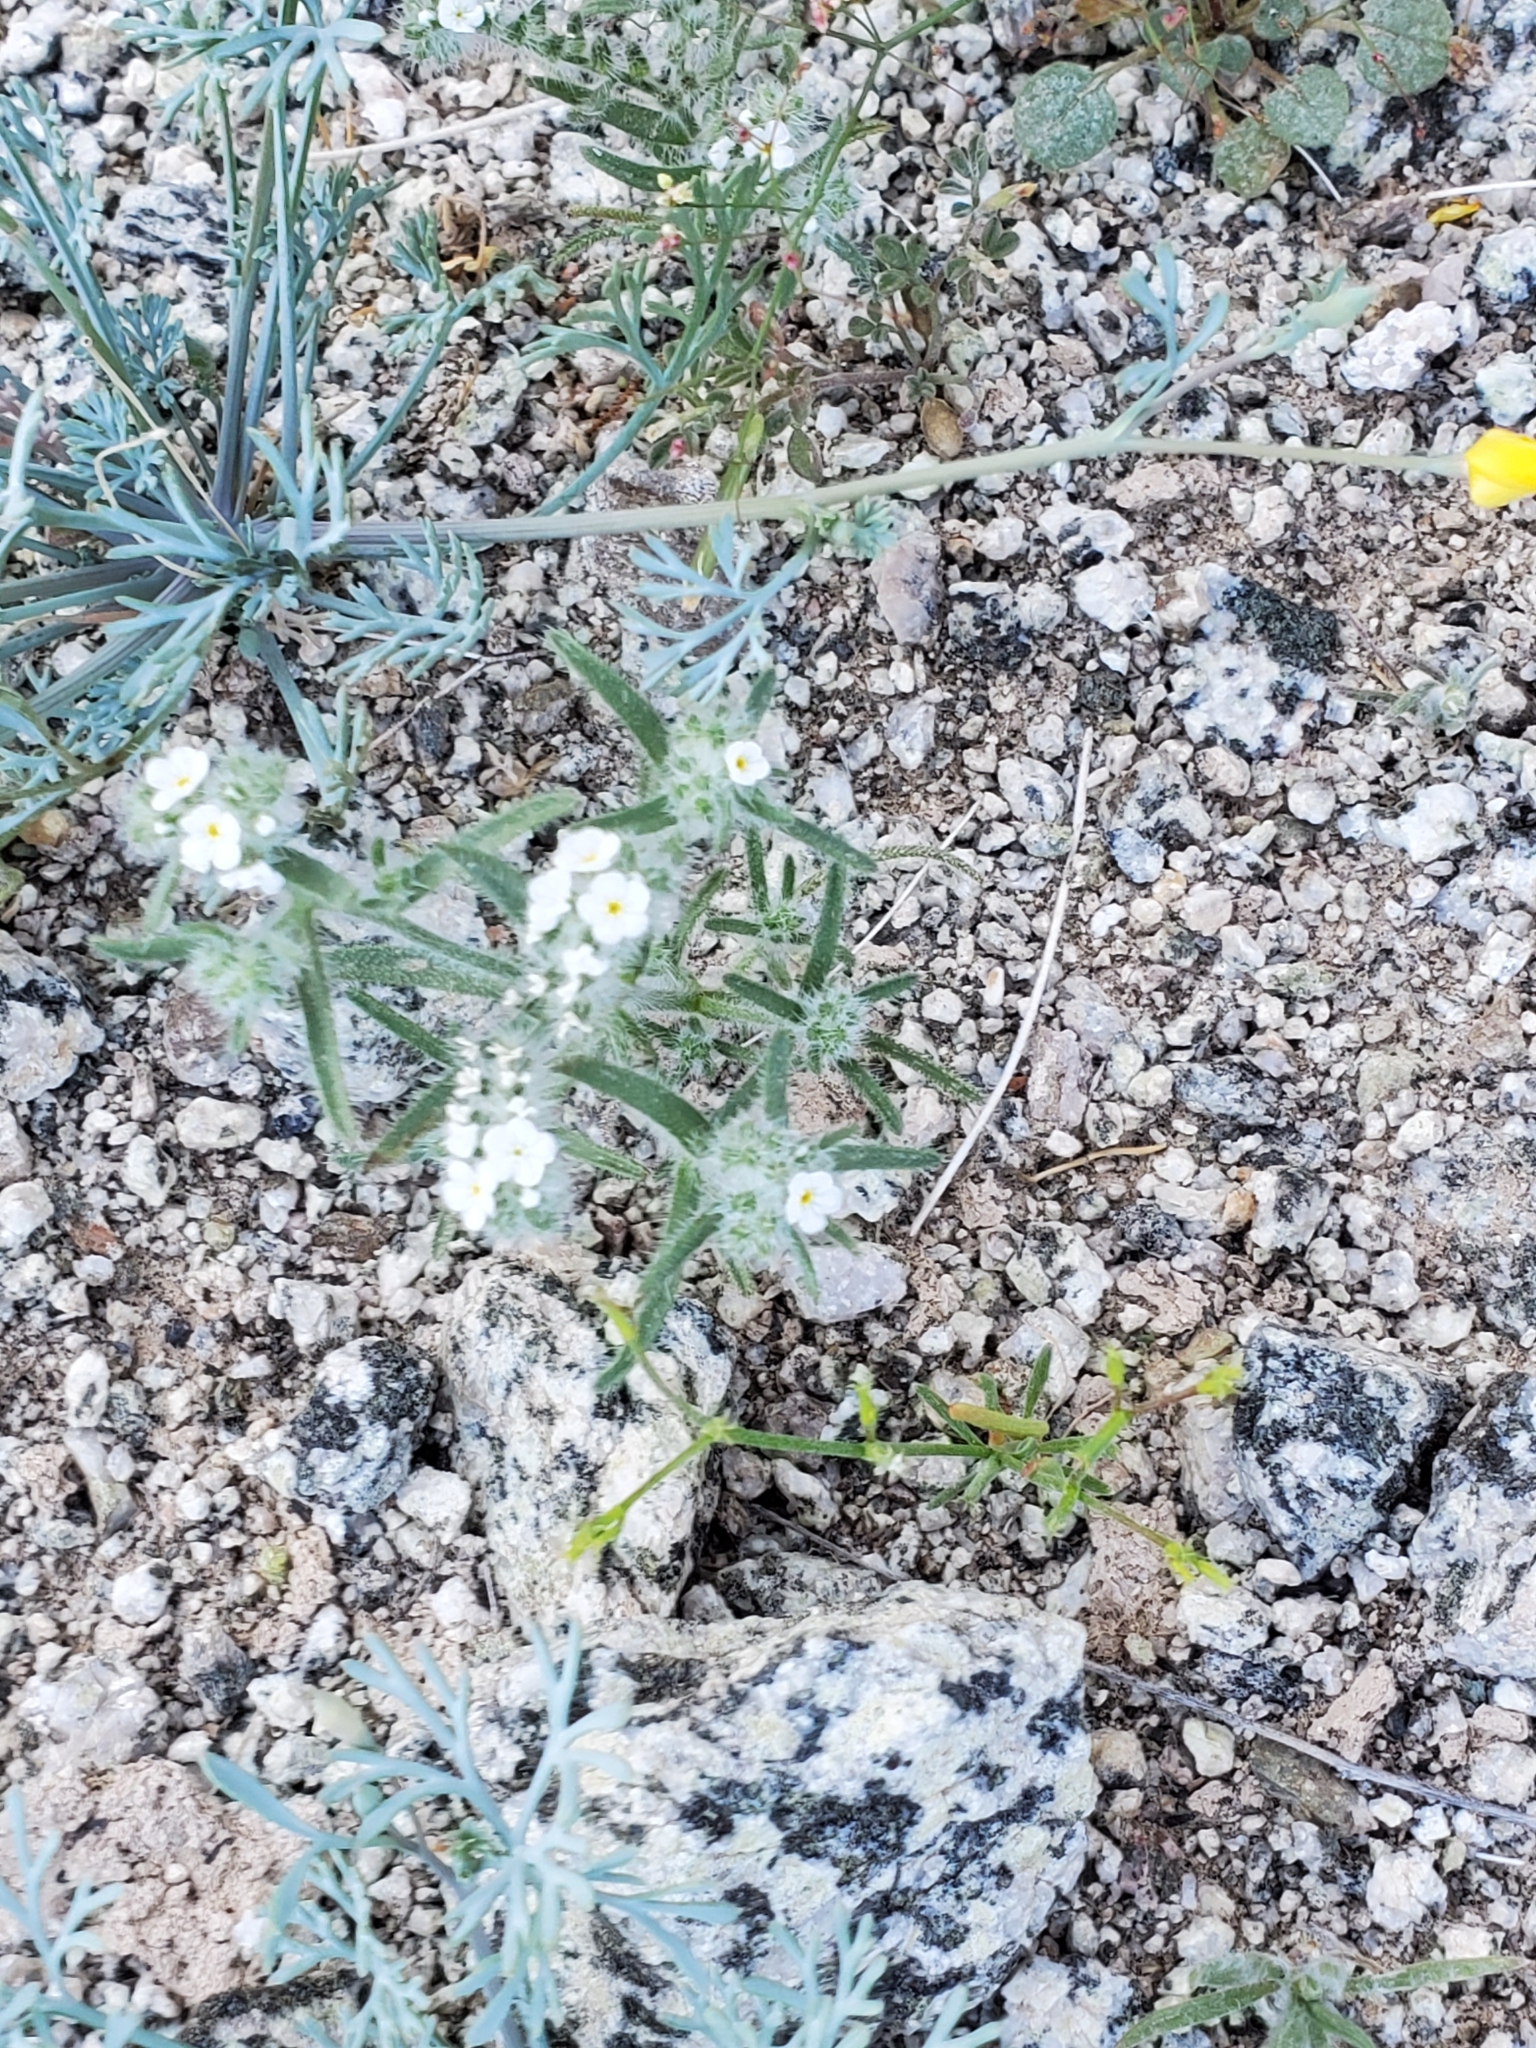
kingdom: Plantae
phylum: Tracheophyta
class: Magnoliopsida
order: Boraginales
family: Boraginaceae
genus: Johnstonella
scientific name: Johnstonella angustifolia
